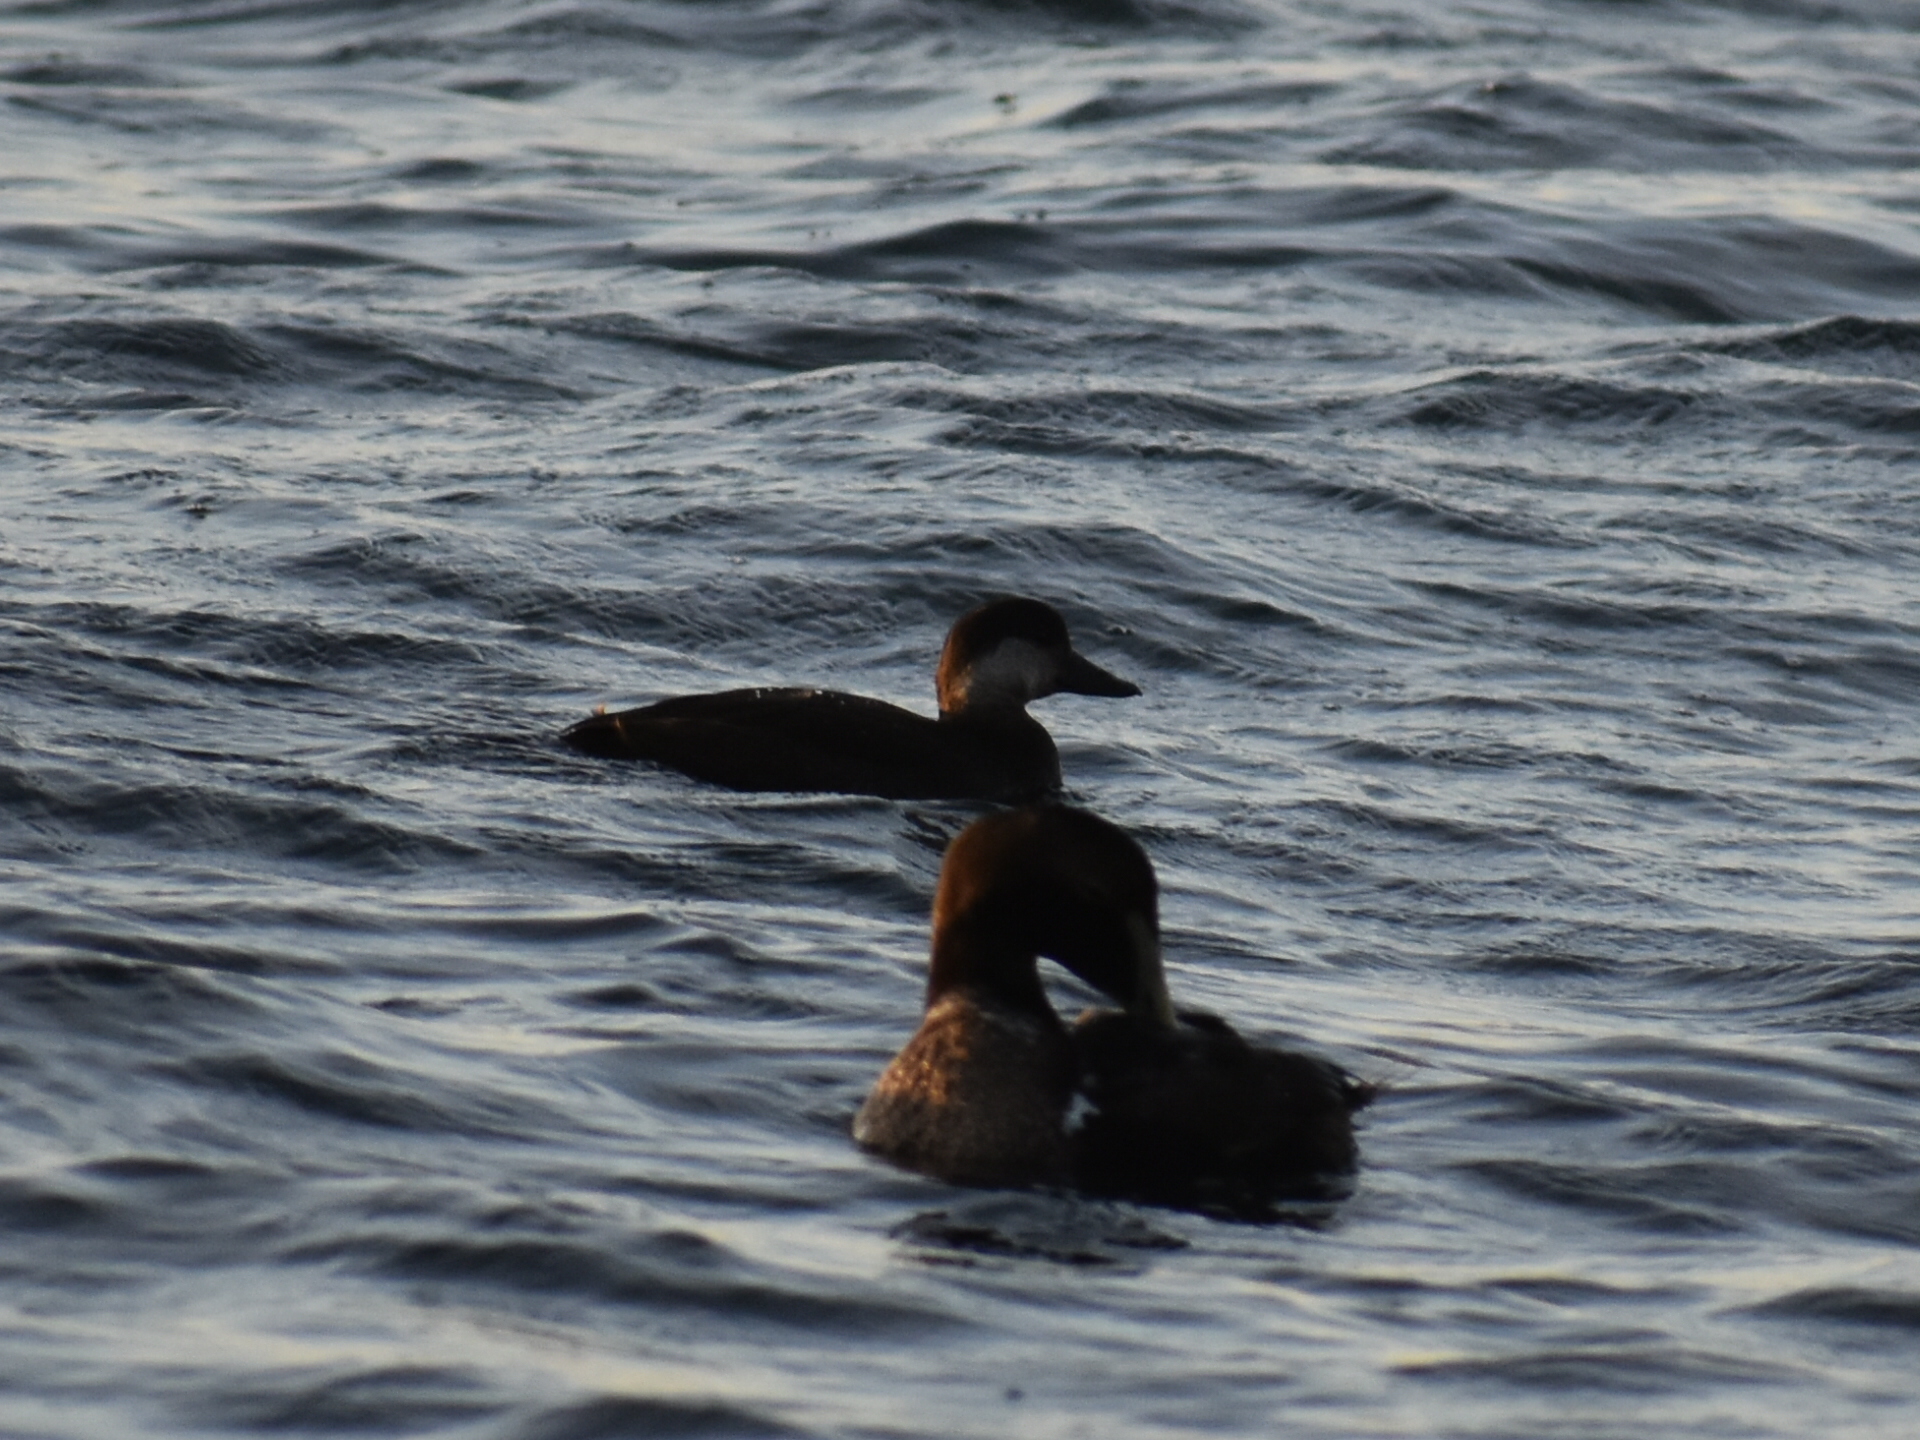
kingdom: Animalia
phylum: Chordata
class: Aves
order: Anseriformes
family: Anatidae
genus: Melanitta
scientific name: Melanitta americana
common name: Black scoter
